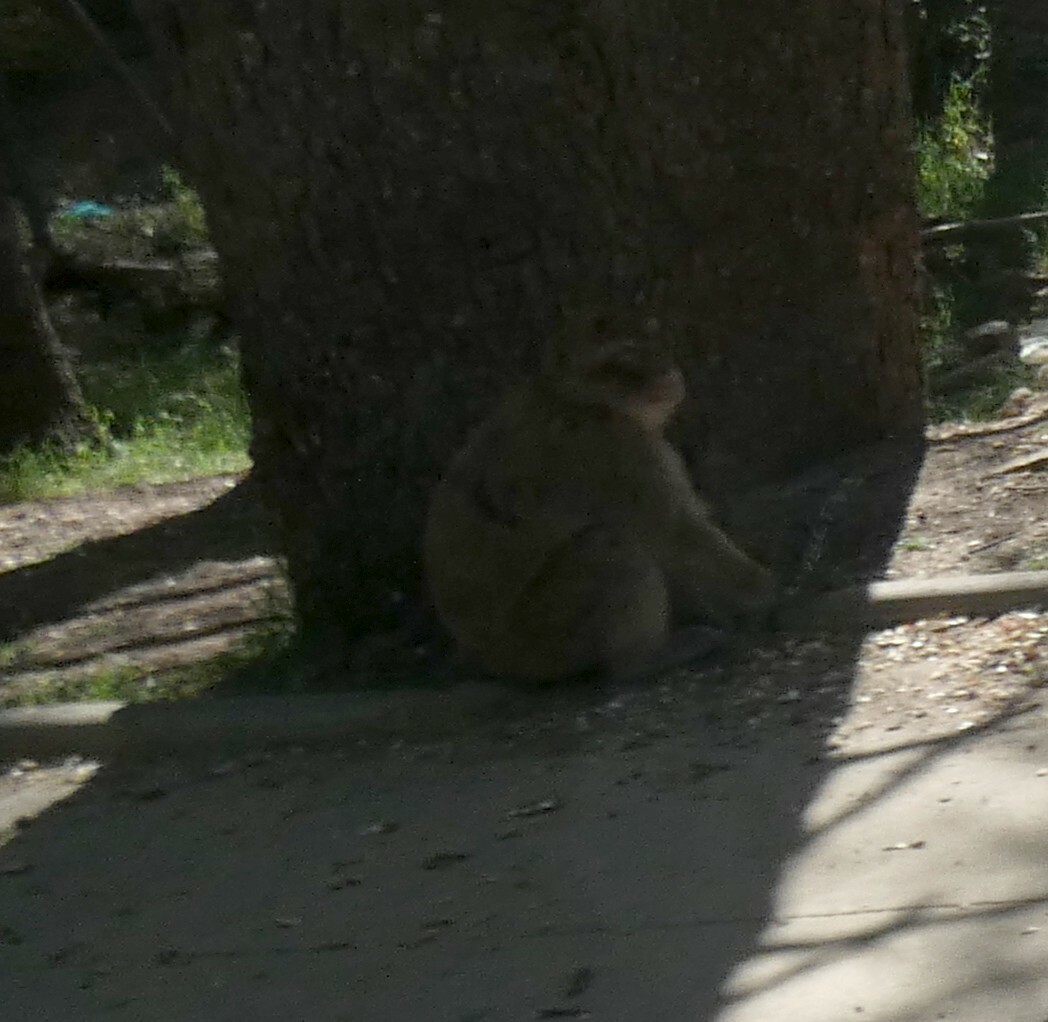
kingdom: Animalia
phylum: Chordata
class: Mammalia
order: Primates
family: Cercopithecidae
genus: Macaca
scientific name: Macaca sylvanus
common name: Barbary macaque
